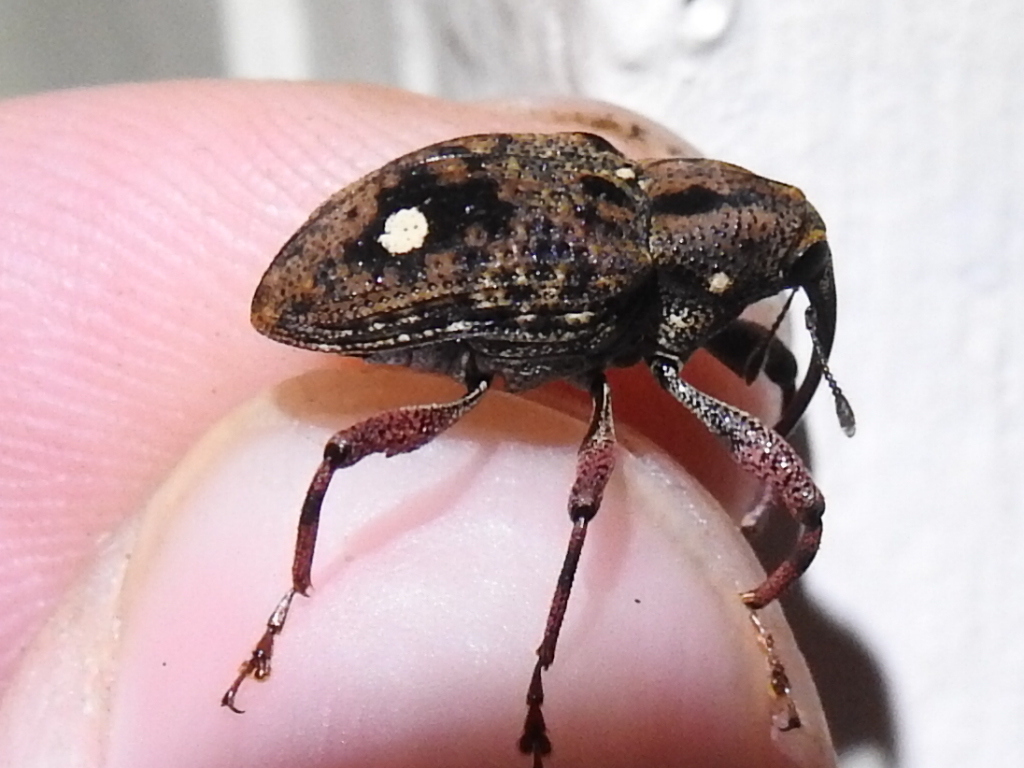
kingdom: Animalia
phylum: Arthropoda
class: Insecta
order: Coleoptera
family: Curculionidae
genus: Macromeropsis
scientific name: Macromeropsis binotatus
